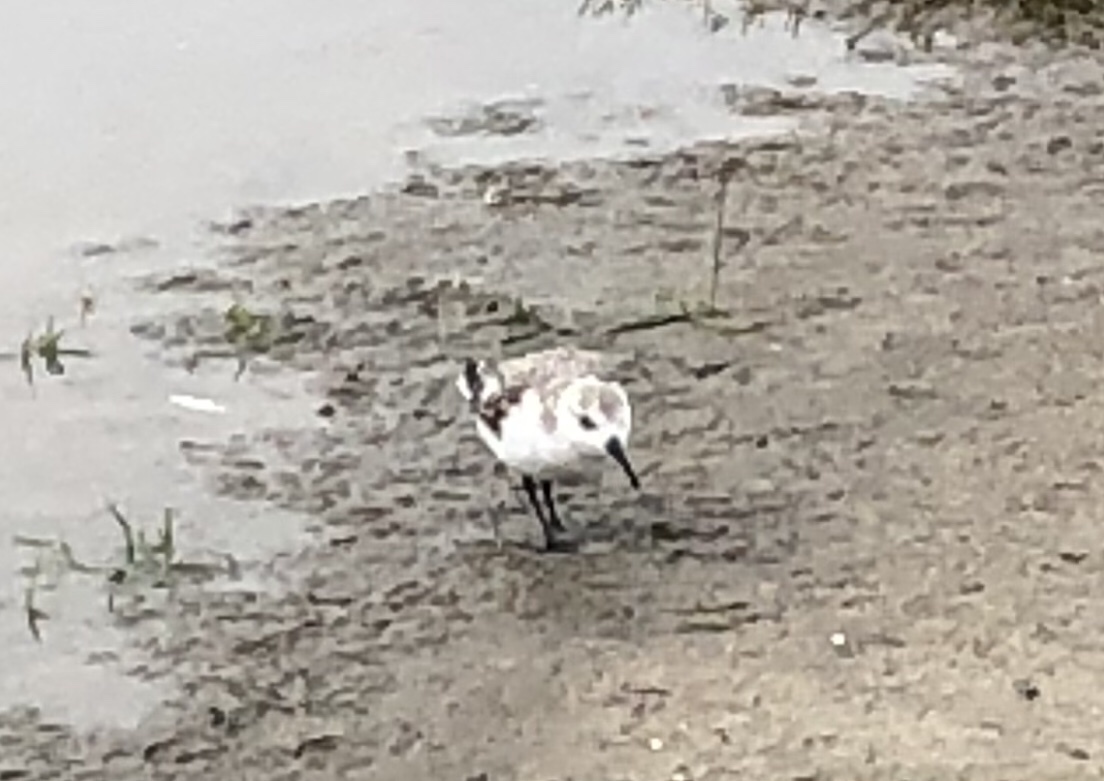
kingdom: Animalia
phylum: Chordata
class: Aves
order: Charadriiformes
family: Scolopacidae
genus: Calidris
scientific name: Calidris alba
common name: Sanderling
